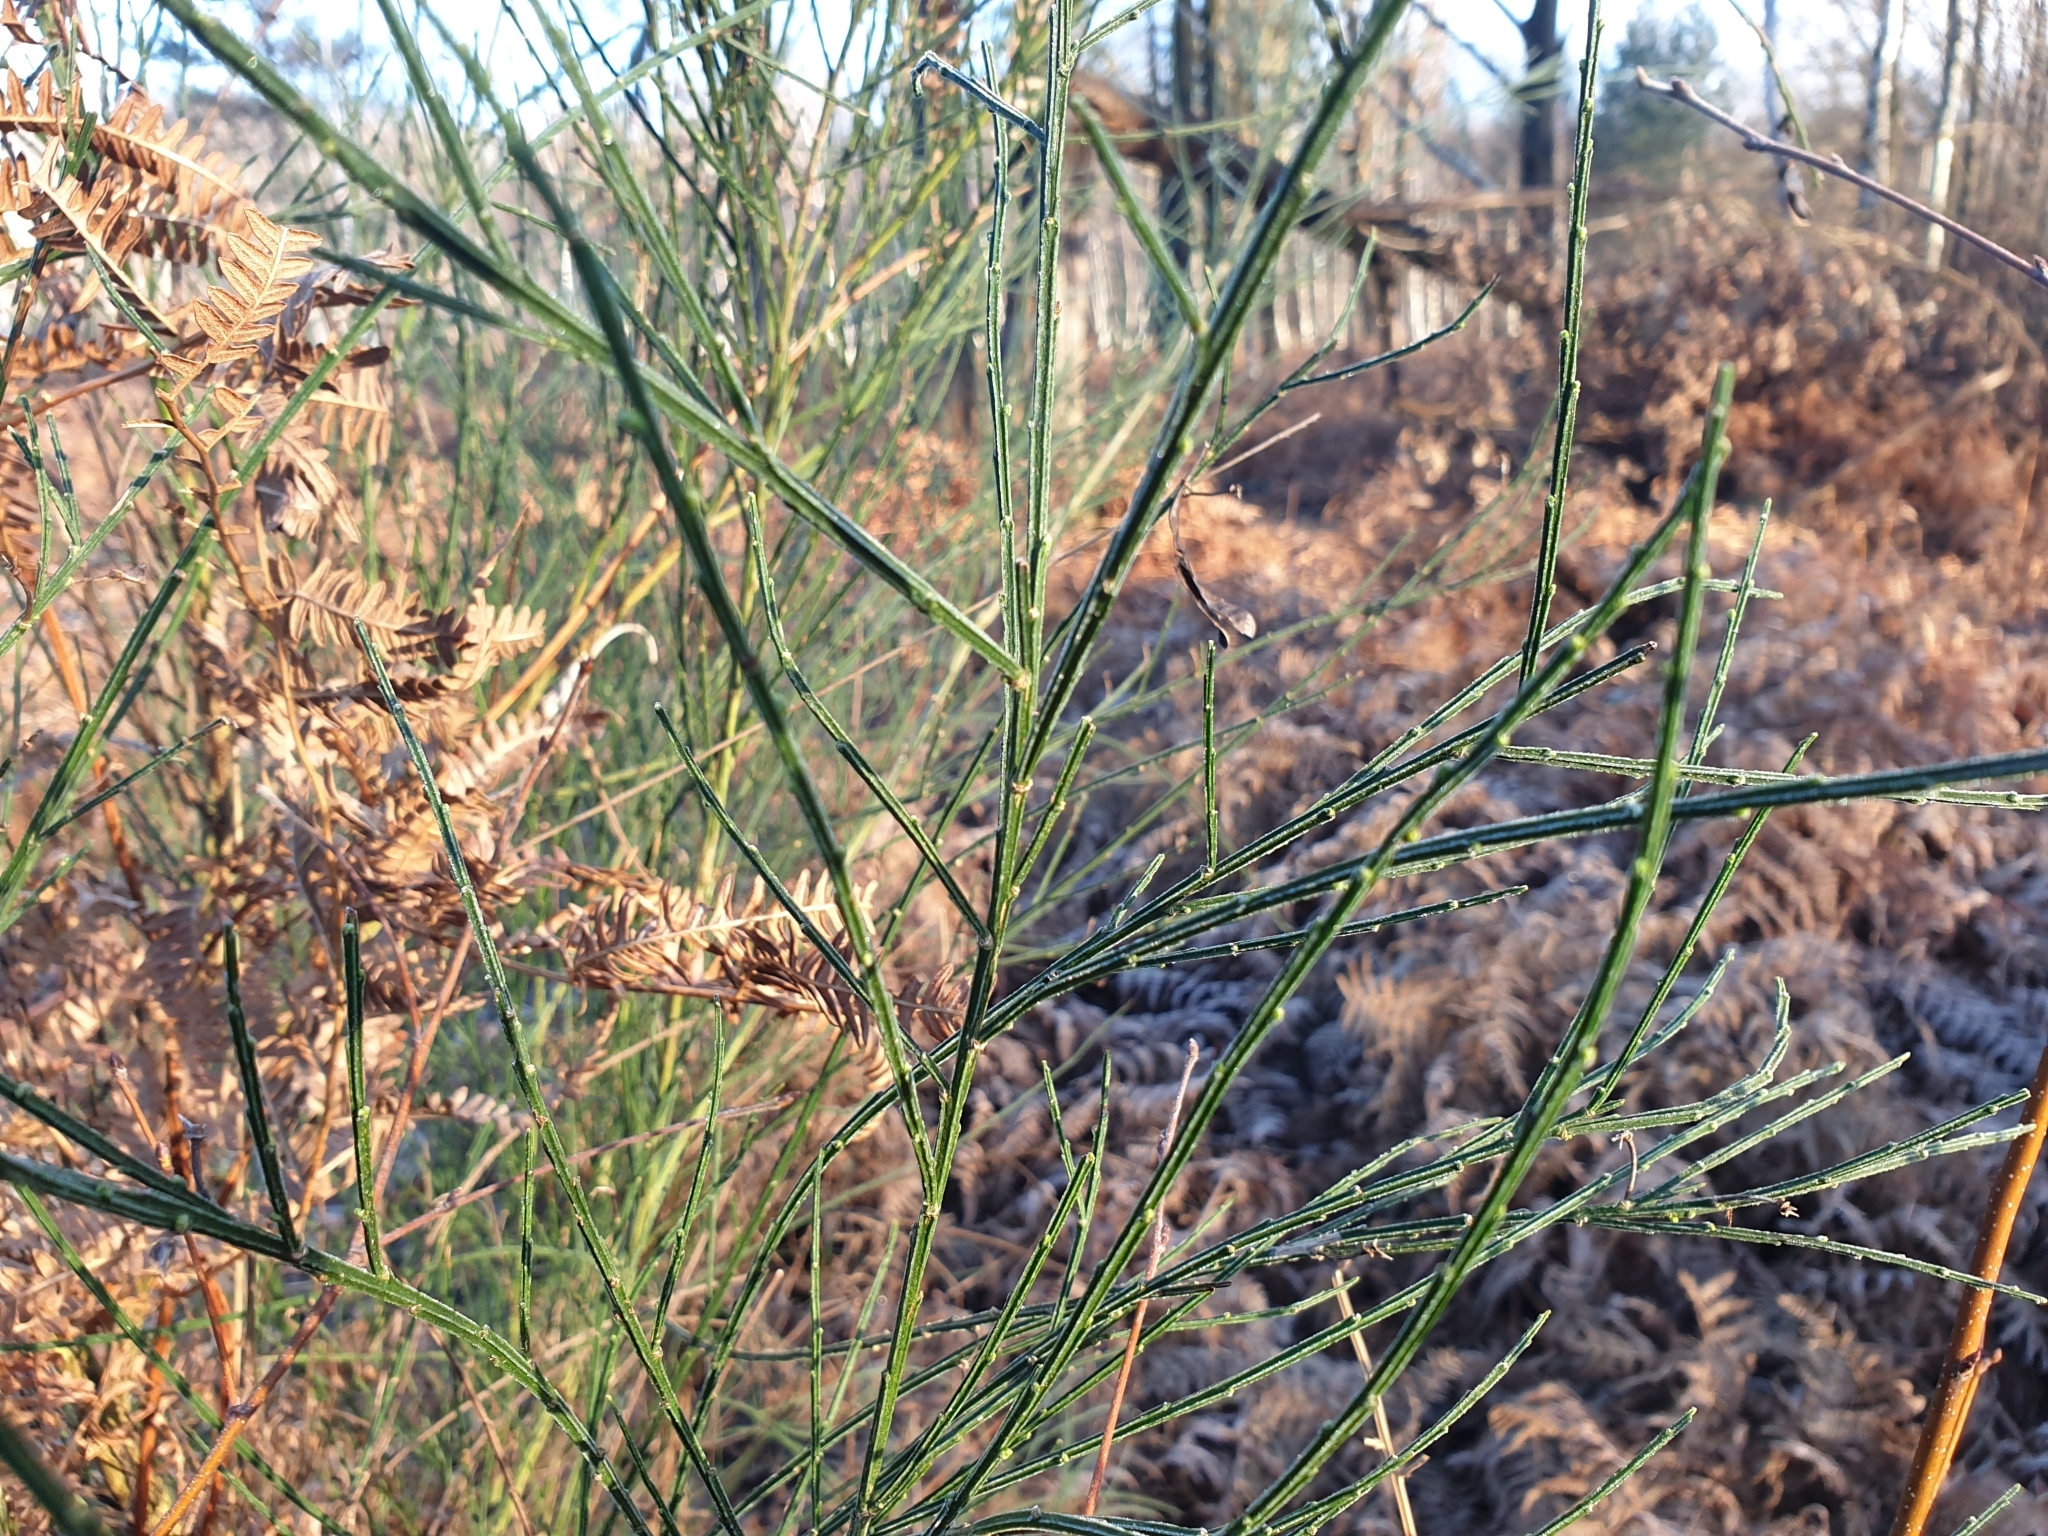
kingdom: Plantae
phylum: Tracheophyta
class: Magnoliopsida
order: Fabales
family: Fabaceae
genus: Cytisus
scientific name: Cytisus scoparius
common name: Scotch broom
